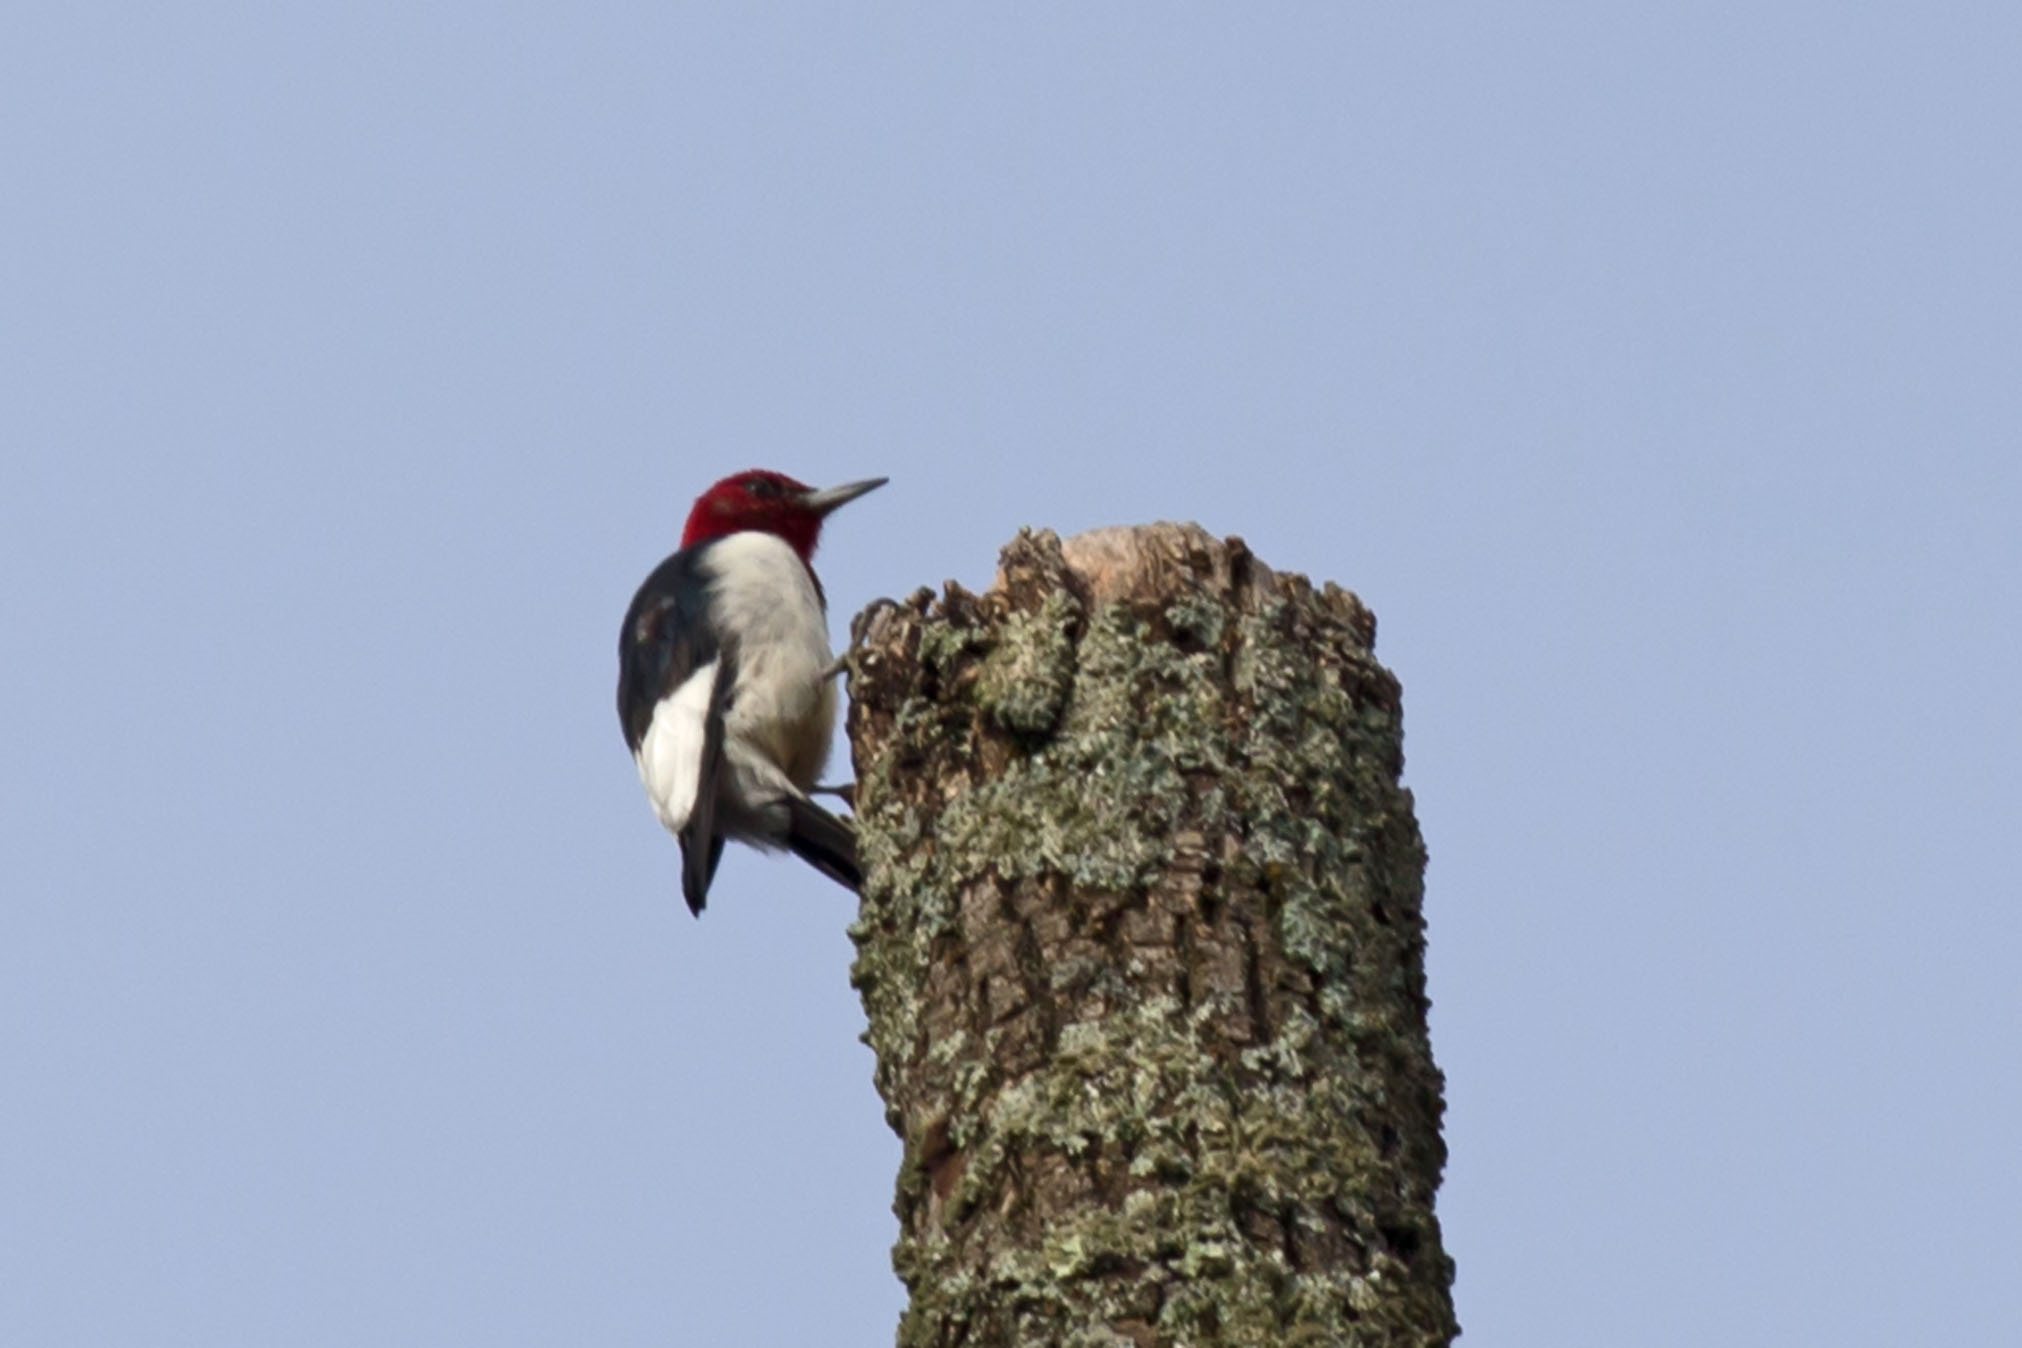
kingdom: Animalia
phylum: Chordata
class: Aves
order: Piciformes
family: Picidae
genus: Melanerpes
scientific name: Melanerpes erythrocephalus
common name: Red-headed woodpecker
